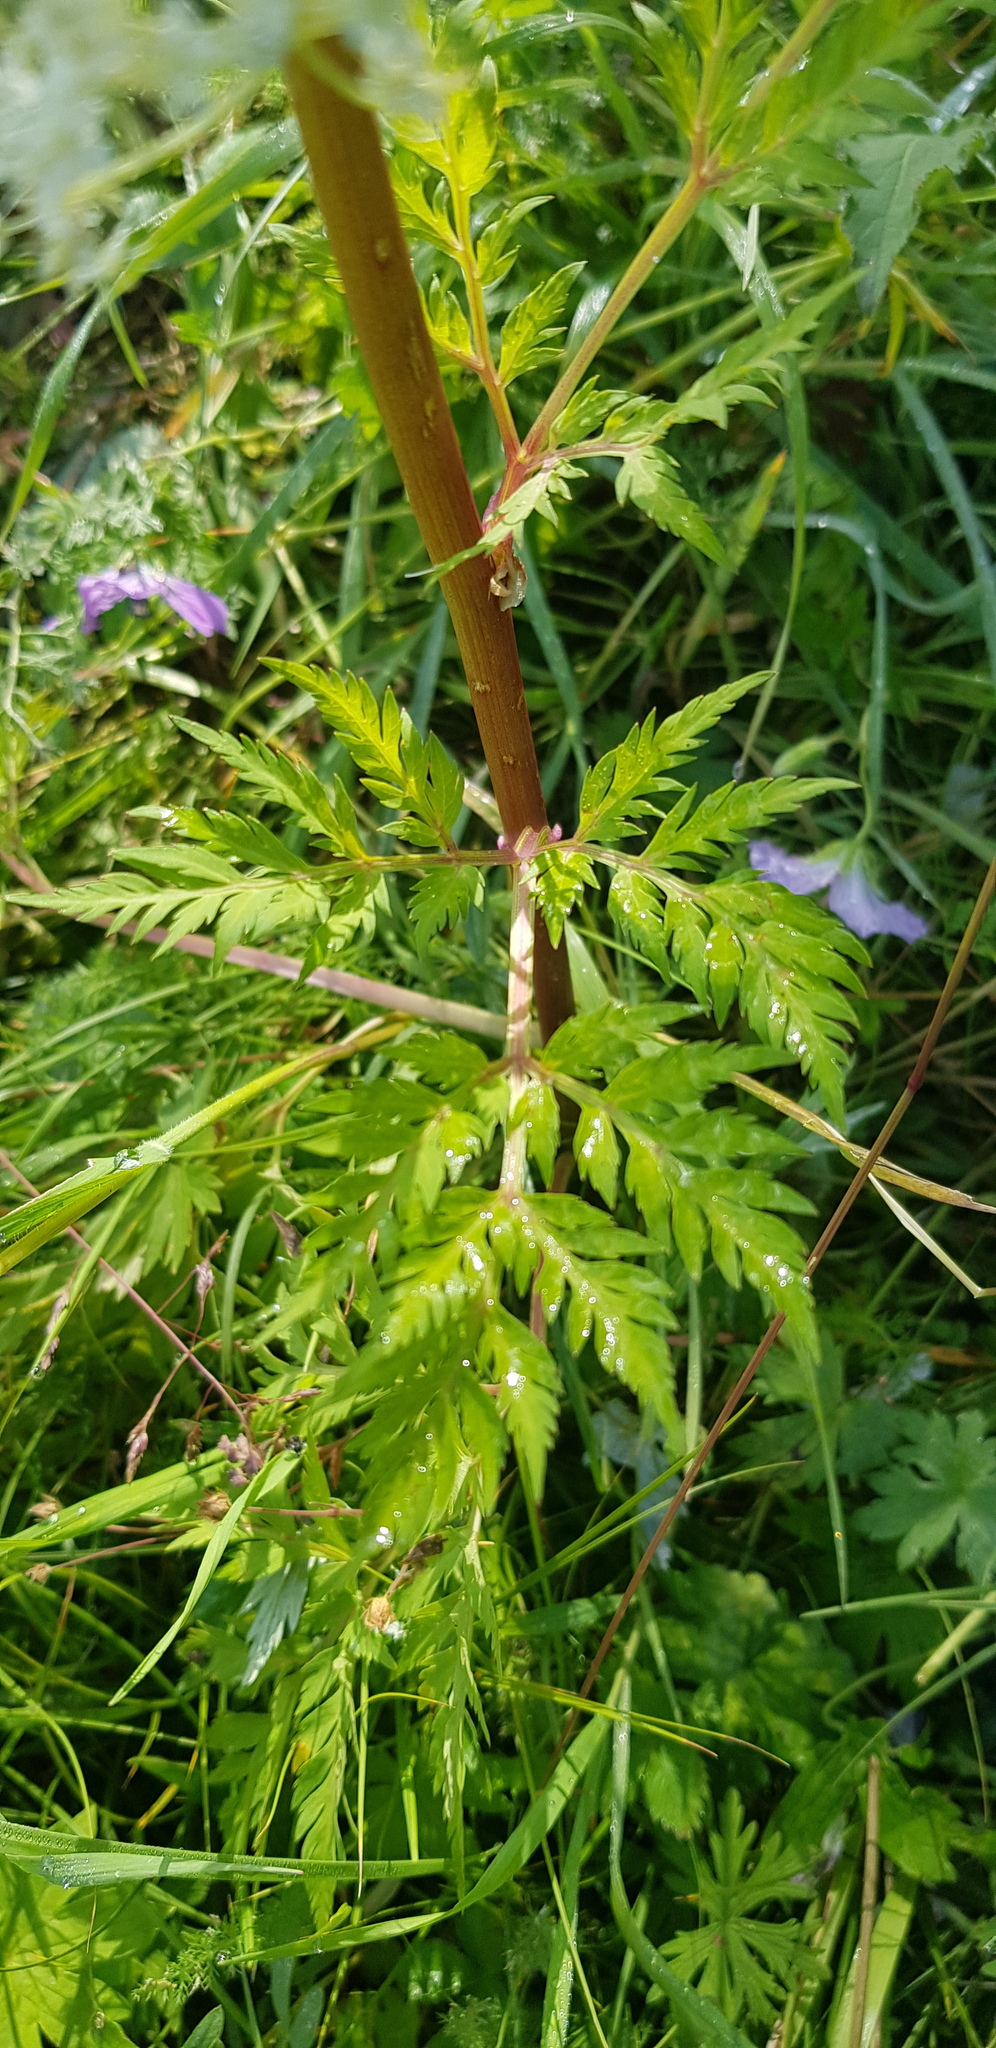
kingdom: Plantae
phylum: Tracheophyta
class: Magnoliopsida
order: Apiales
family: Apiaceae
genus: Pleurospermum
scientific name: Pleurospermum uralense
